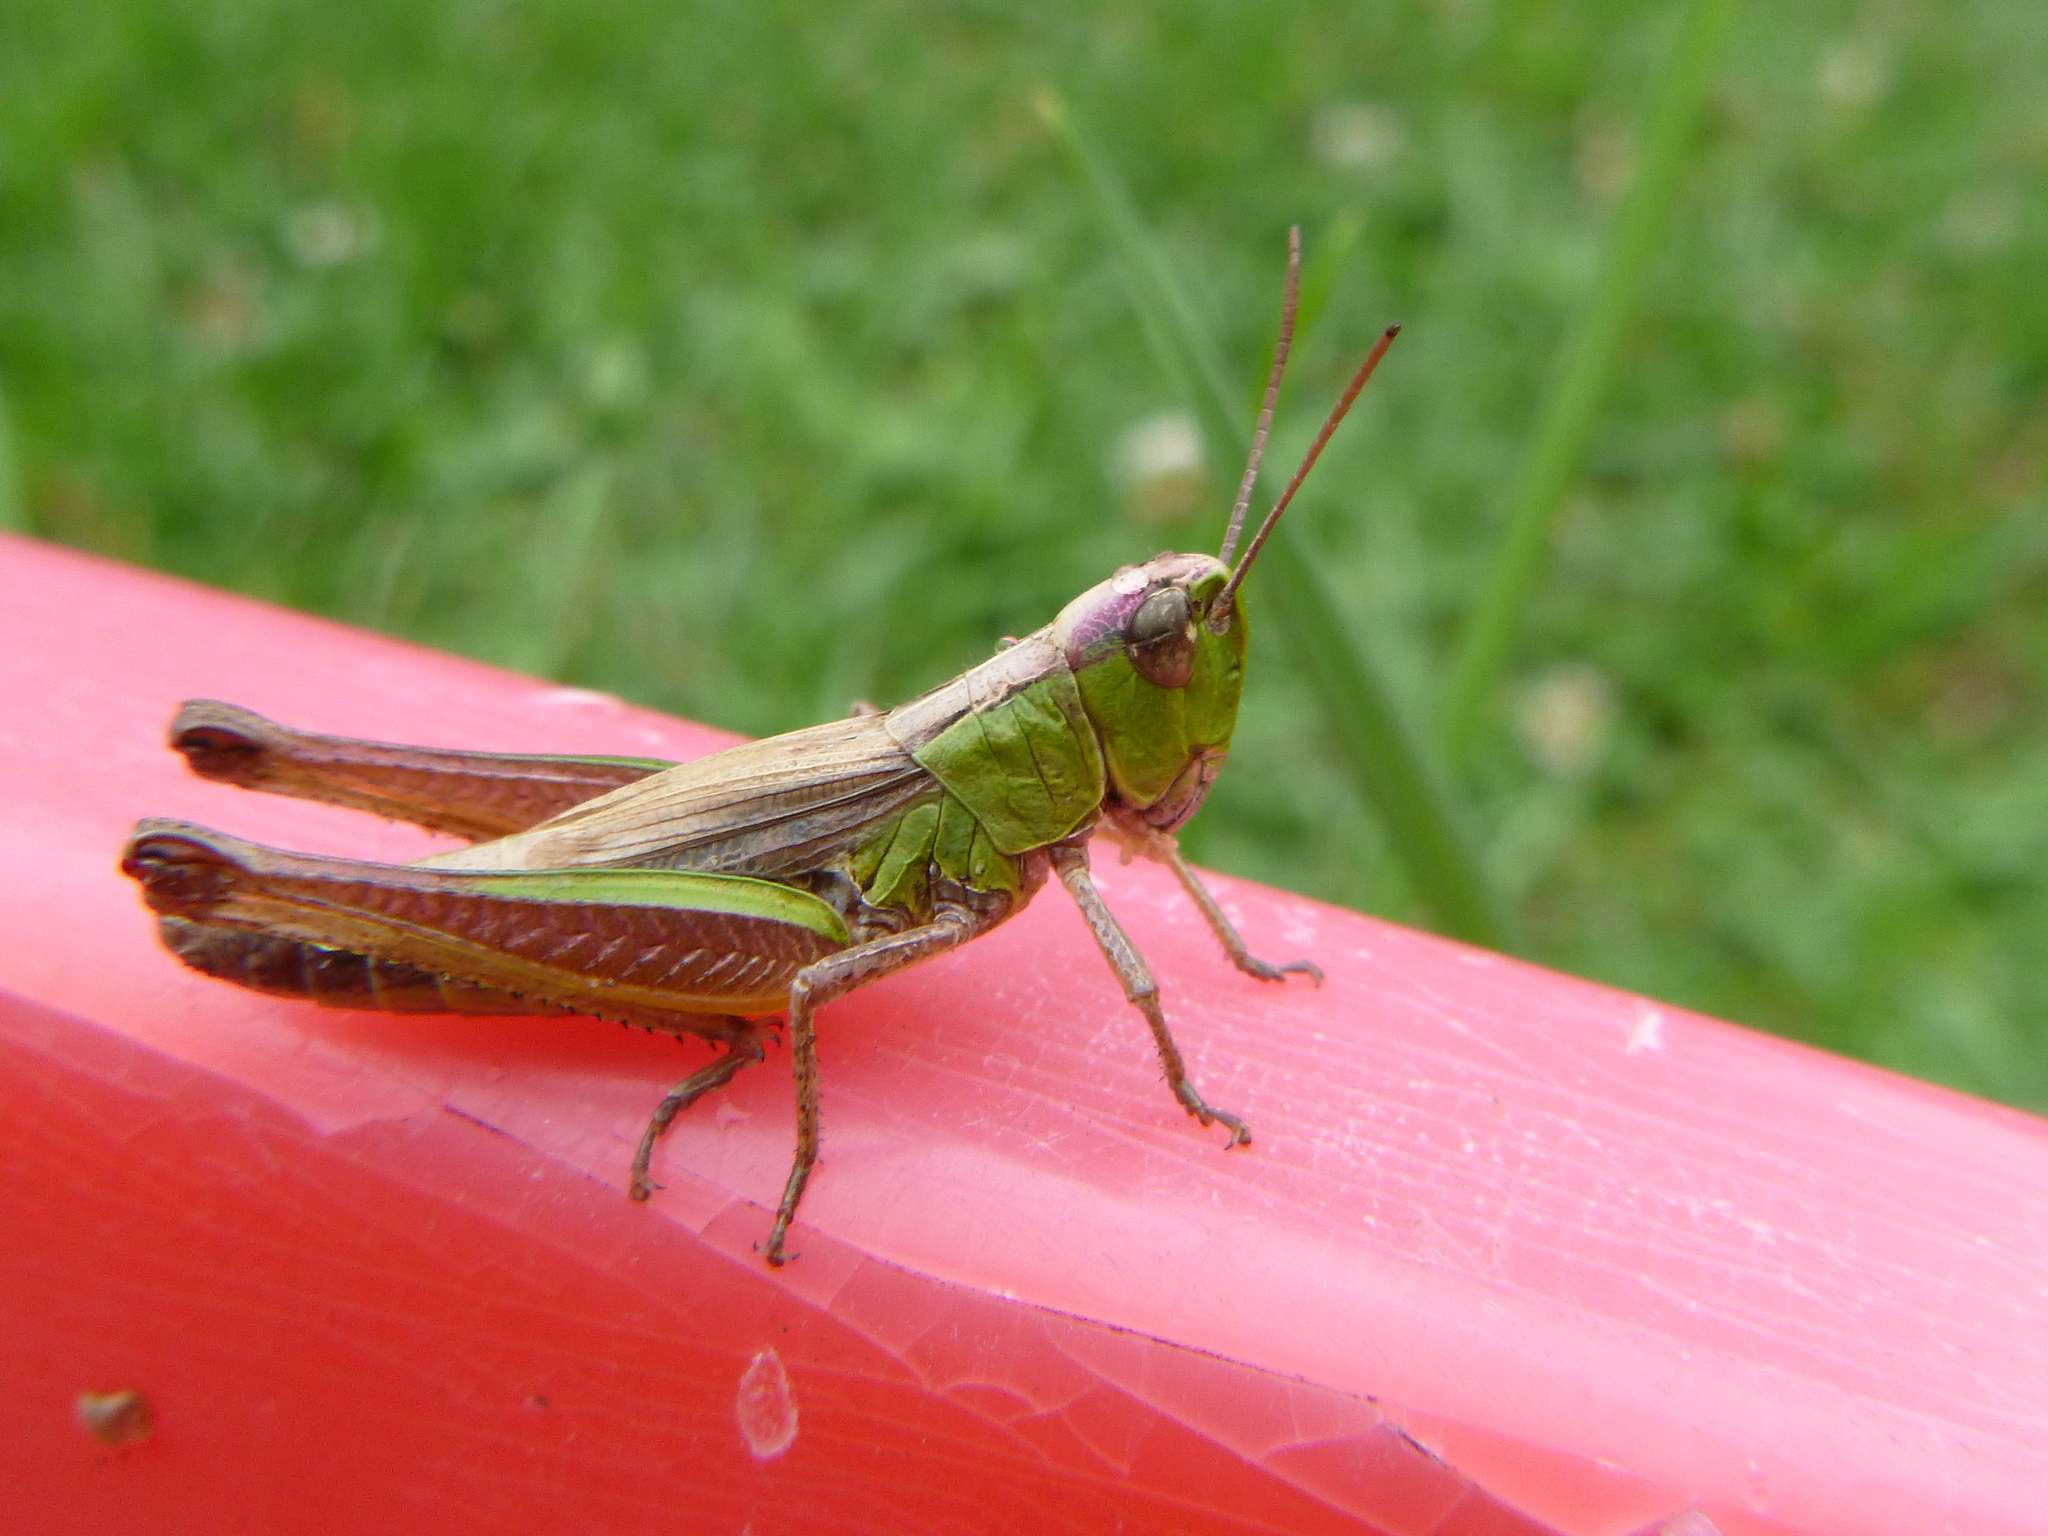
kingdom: Animalia
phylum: Arthropoda
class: Insecta
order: Orthoptera
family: Acrididae
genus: Pseudochorthippus
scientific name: Pseudochorthippus parallelus
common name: Meadow grasshopper
